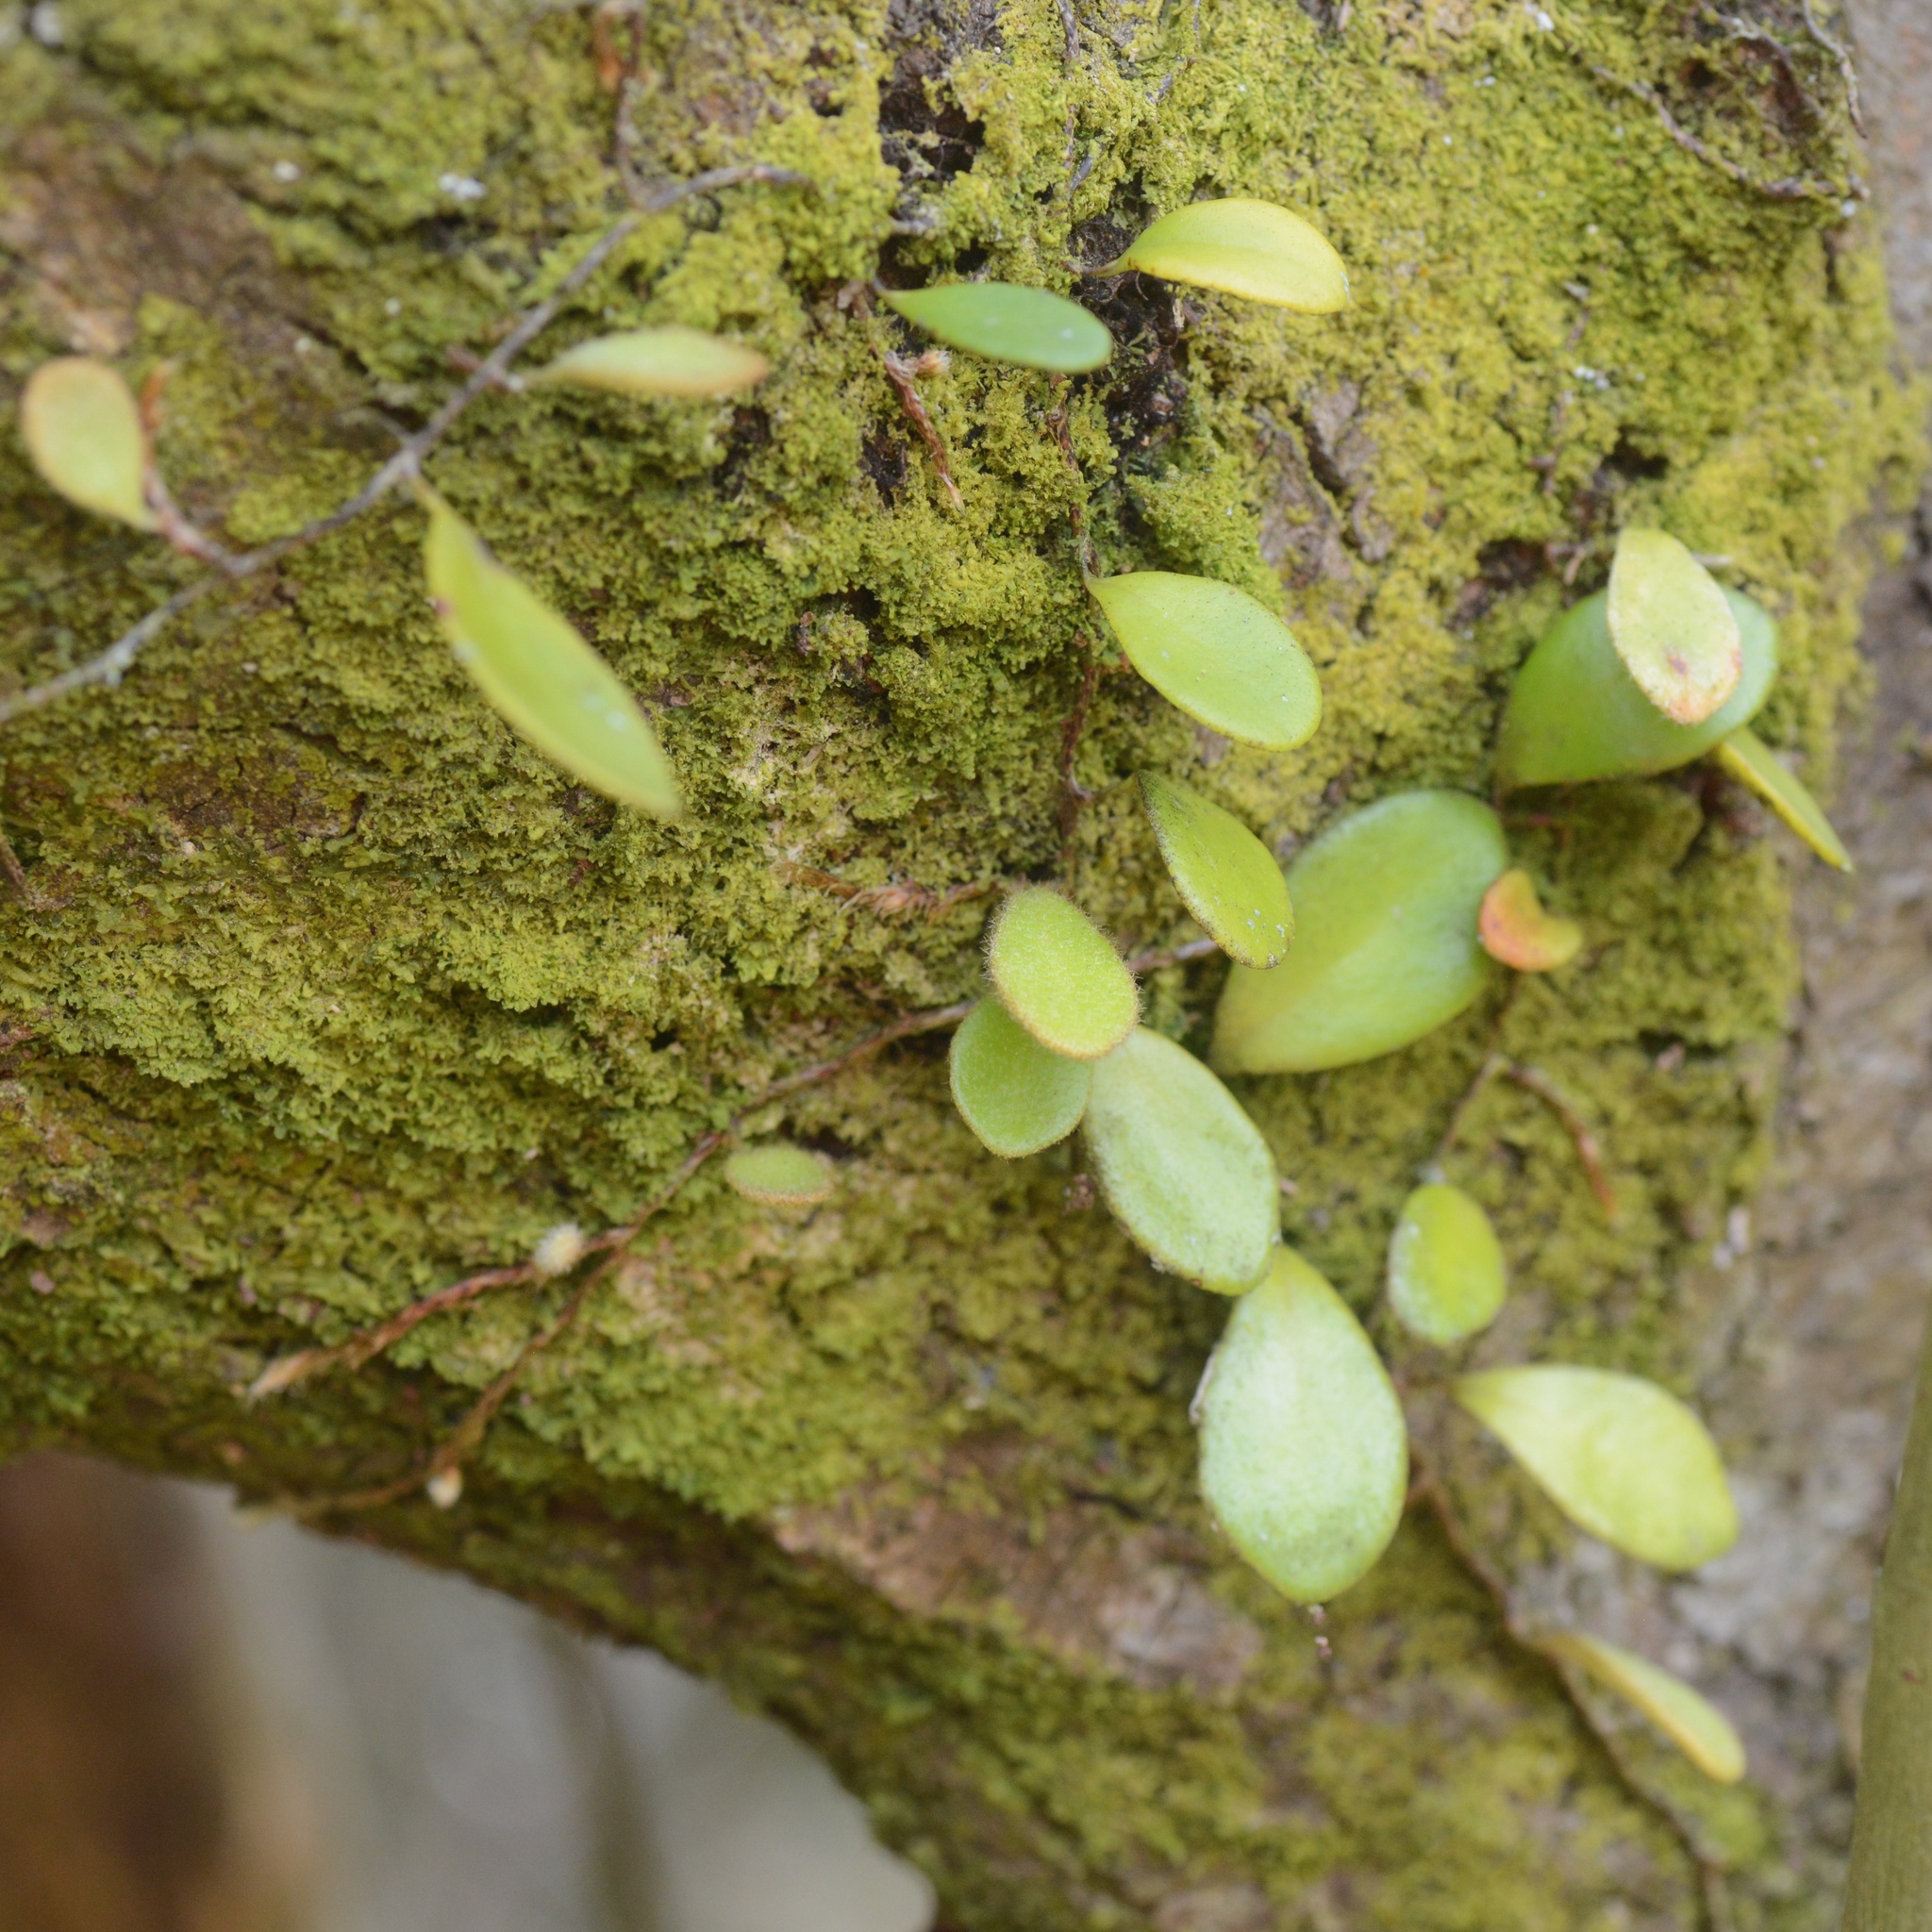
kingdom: Plantae
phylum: Tracheophyta
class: Polypodiopsida
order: Polypodiales
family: Polypodiaceae
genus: Pyrrosia
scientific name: Pyrrosia eleagnifolia
